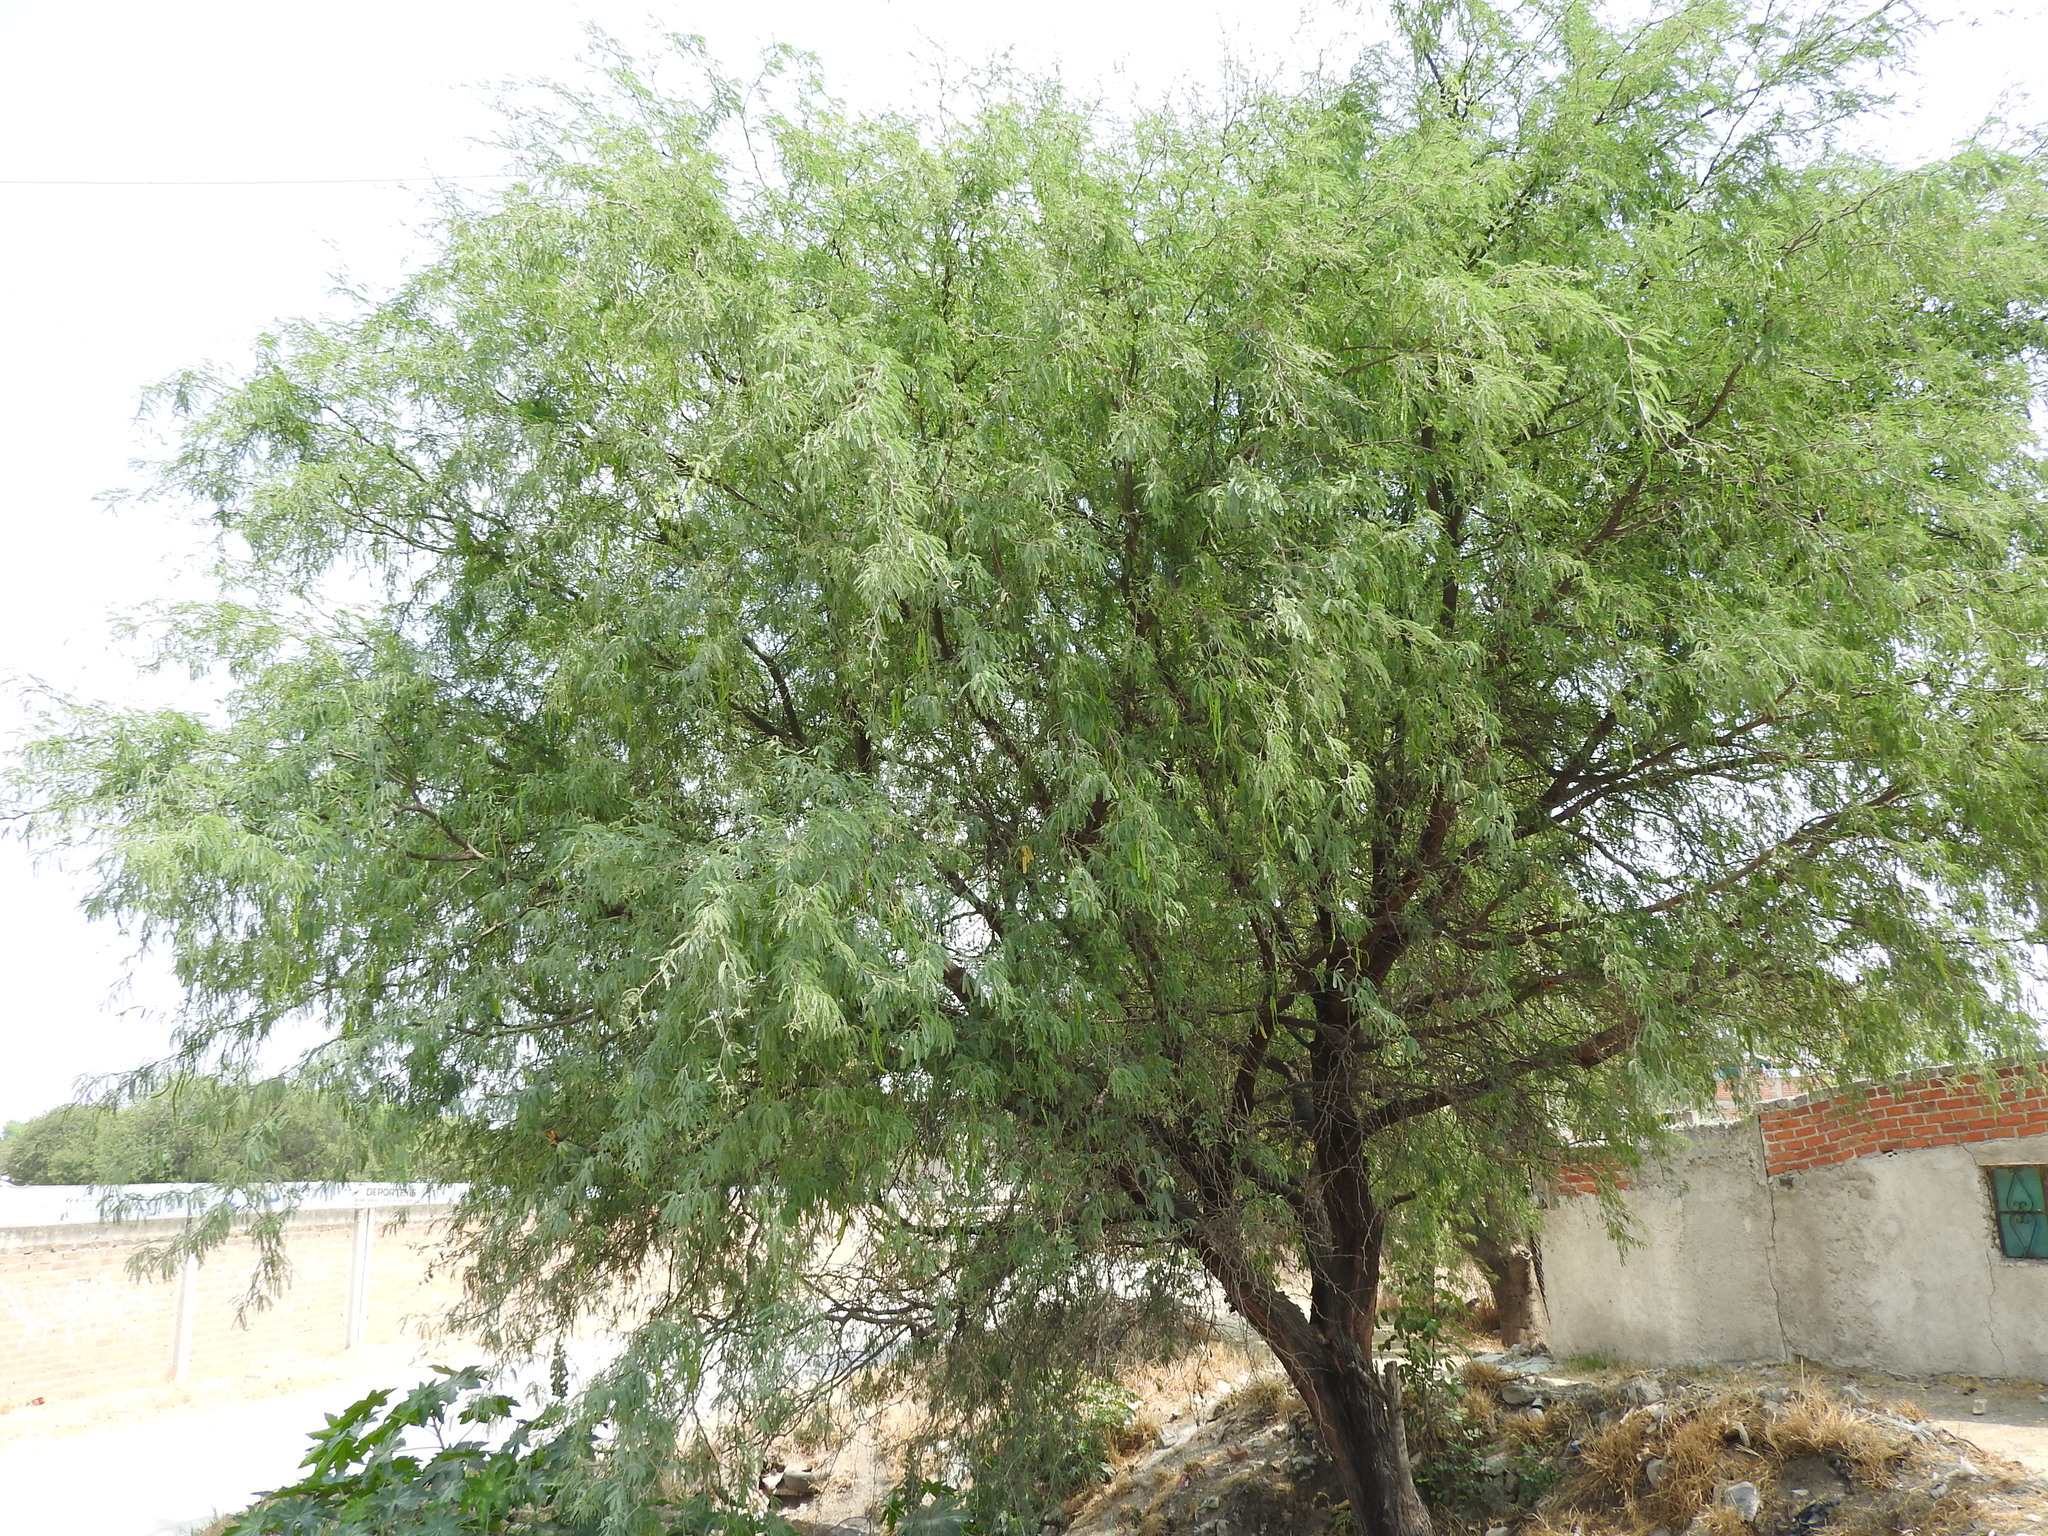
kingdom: Plantae
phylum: Tracheophyta
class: Magnoliopsida
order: Fabales
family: Fabaceae
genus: Prosopis
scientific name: Prosopis laevigata
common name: Smooth mesquite
